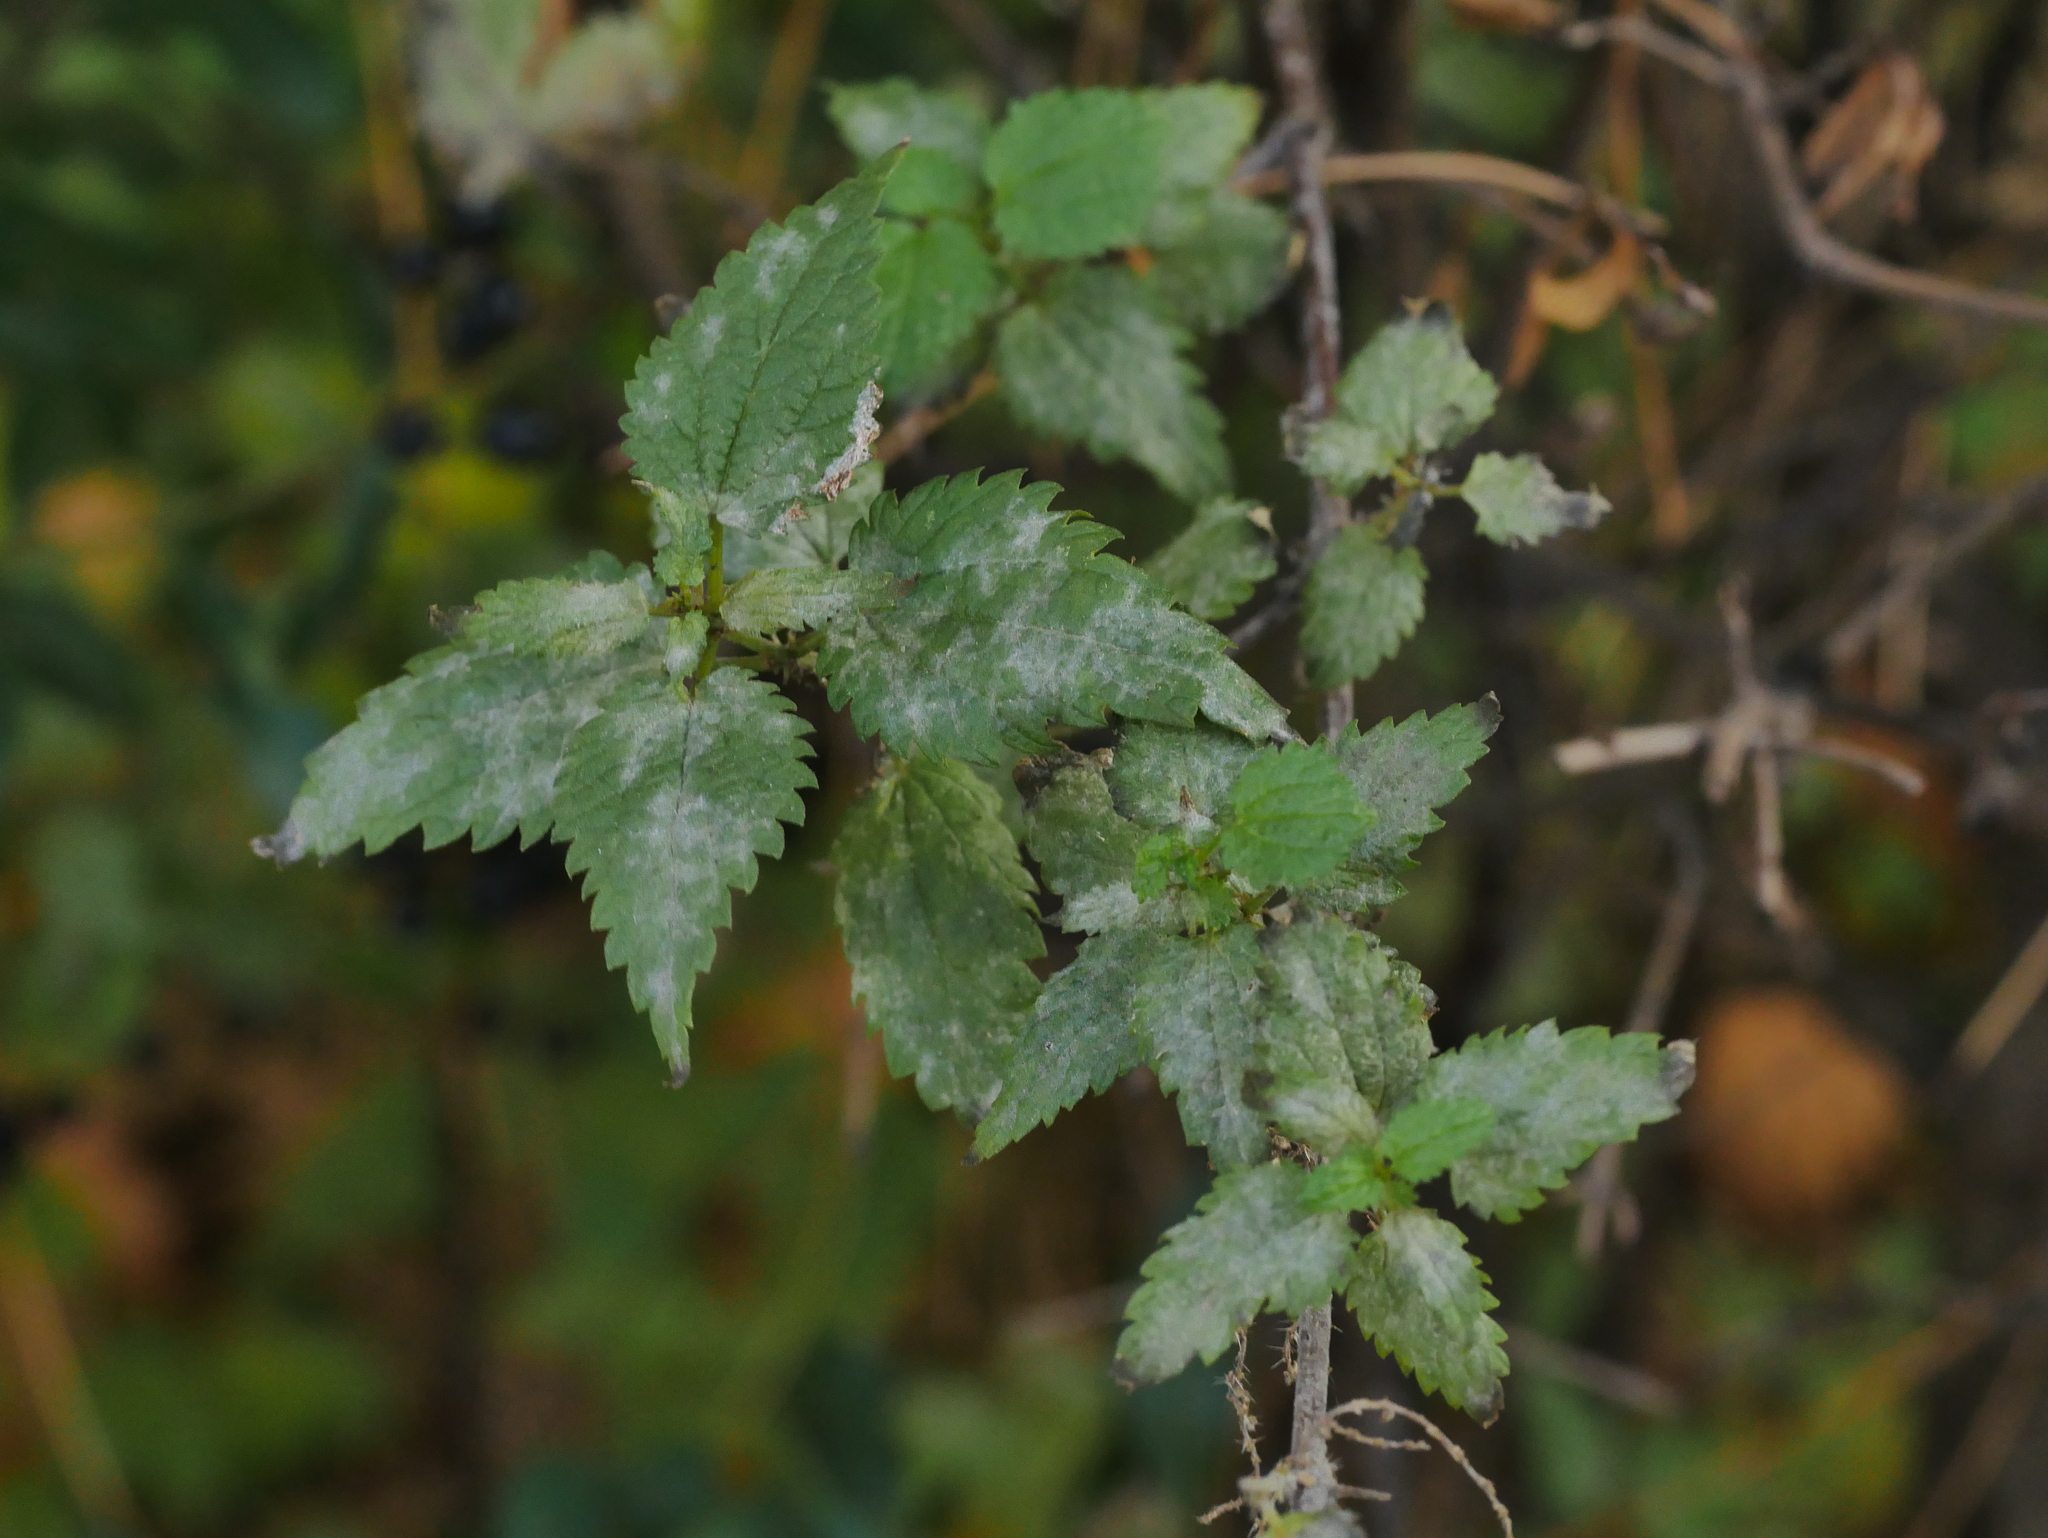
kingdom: Fungi
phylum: Ascomycota
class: Leotiomycetes
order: Helotiales
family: Erysiphaceae
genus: Erysiphe
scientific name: Erysiphe urticae
